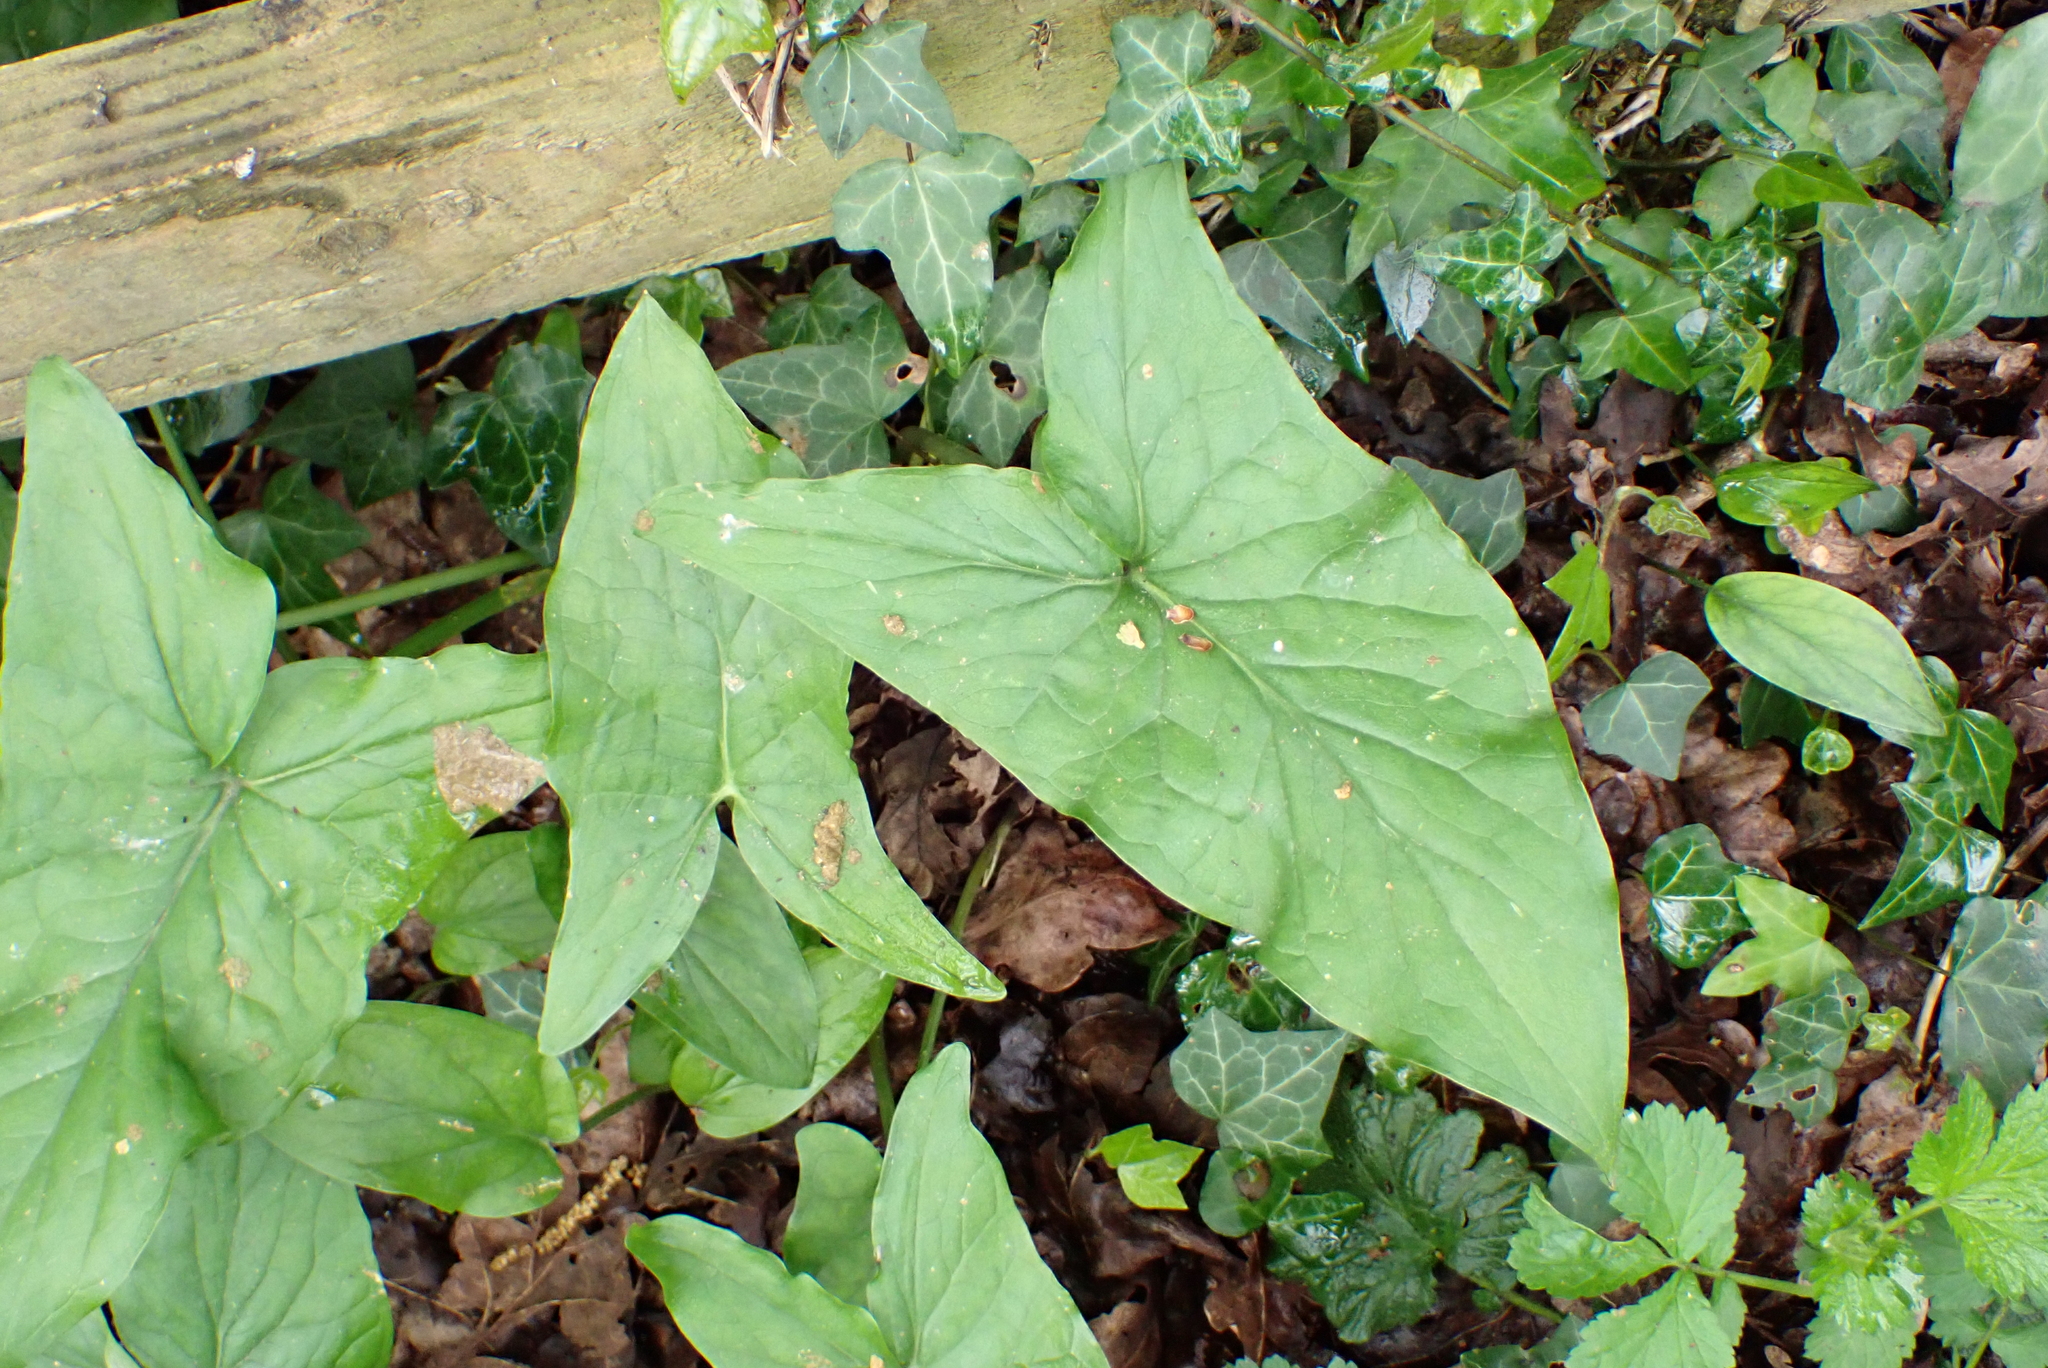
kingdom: Plantae
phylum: Tracheophyta
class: Liliopsida
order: Alismatales
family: Araceae
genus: Arum
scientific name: Arum maculatum
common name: Lords-and-ladies
